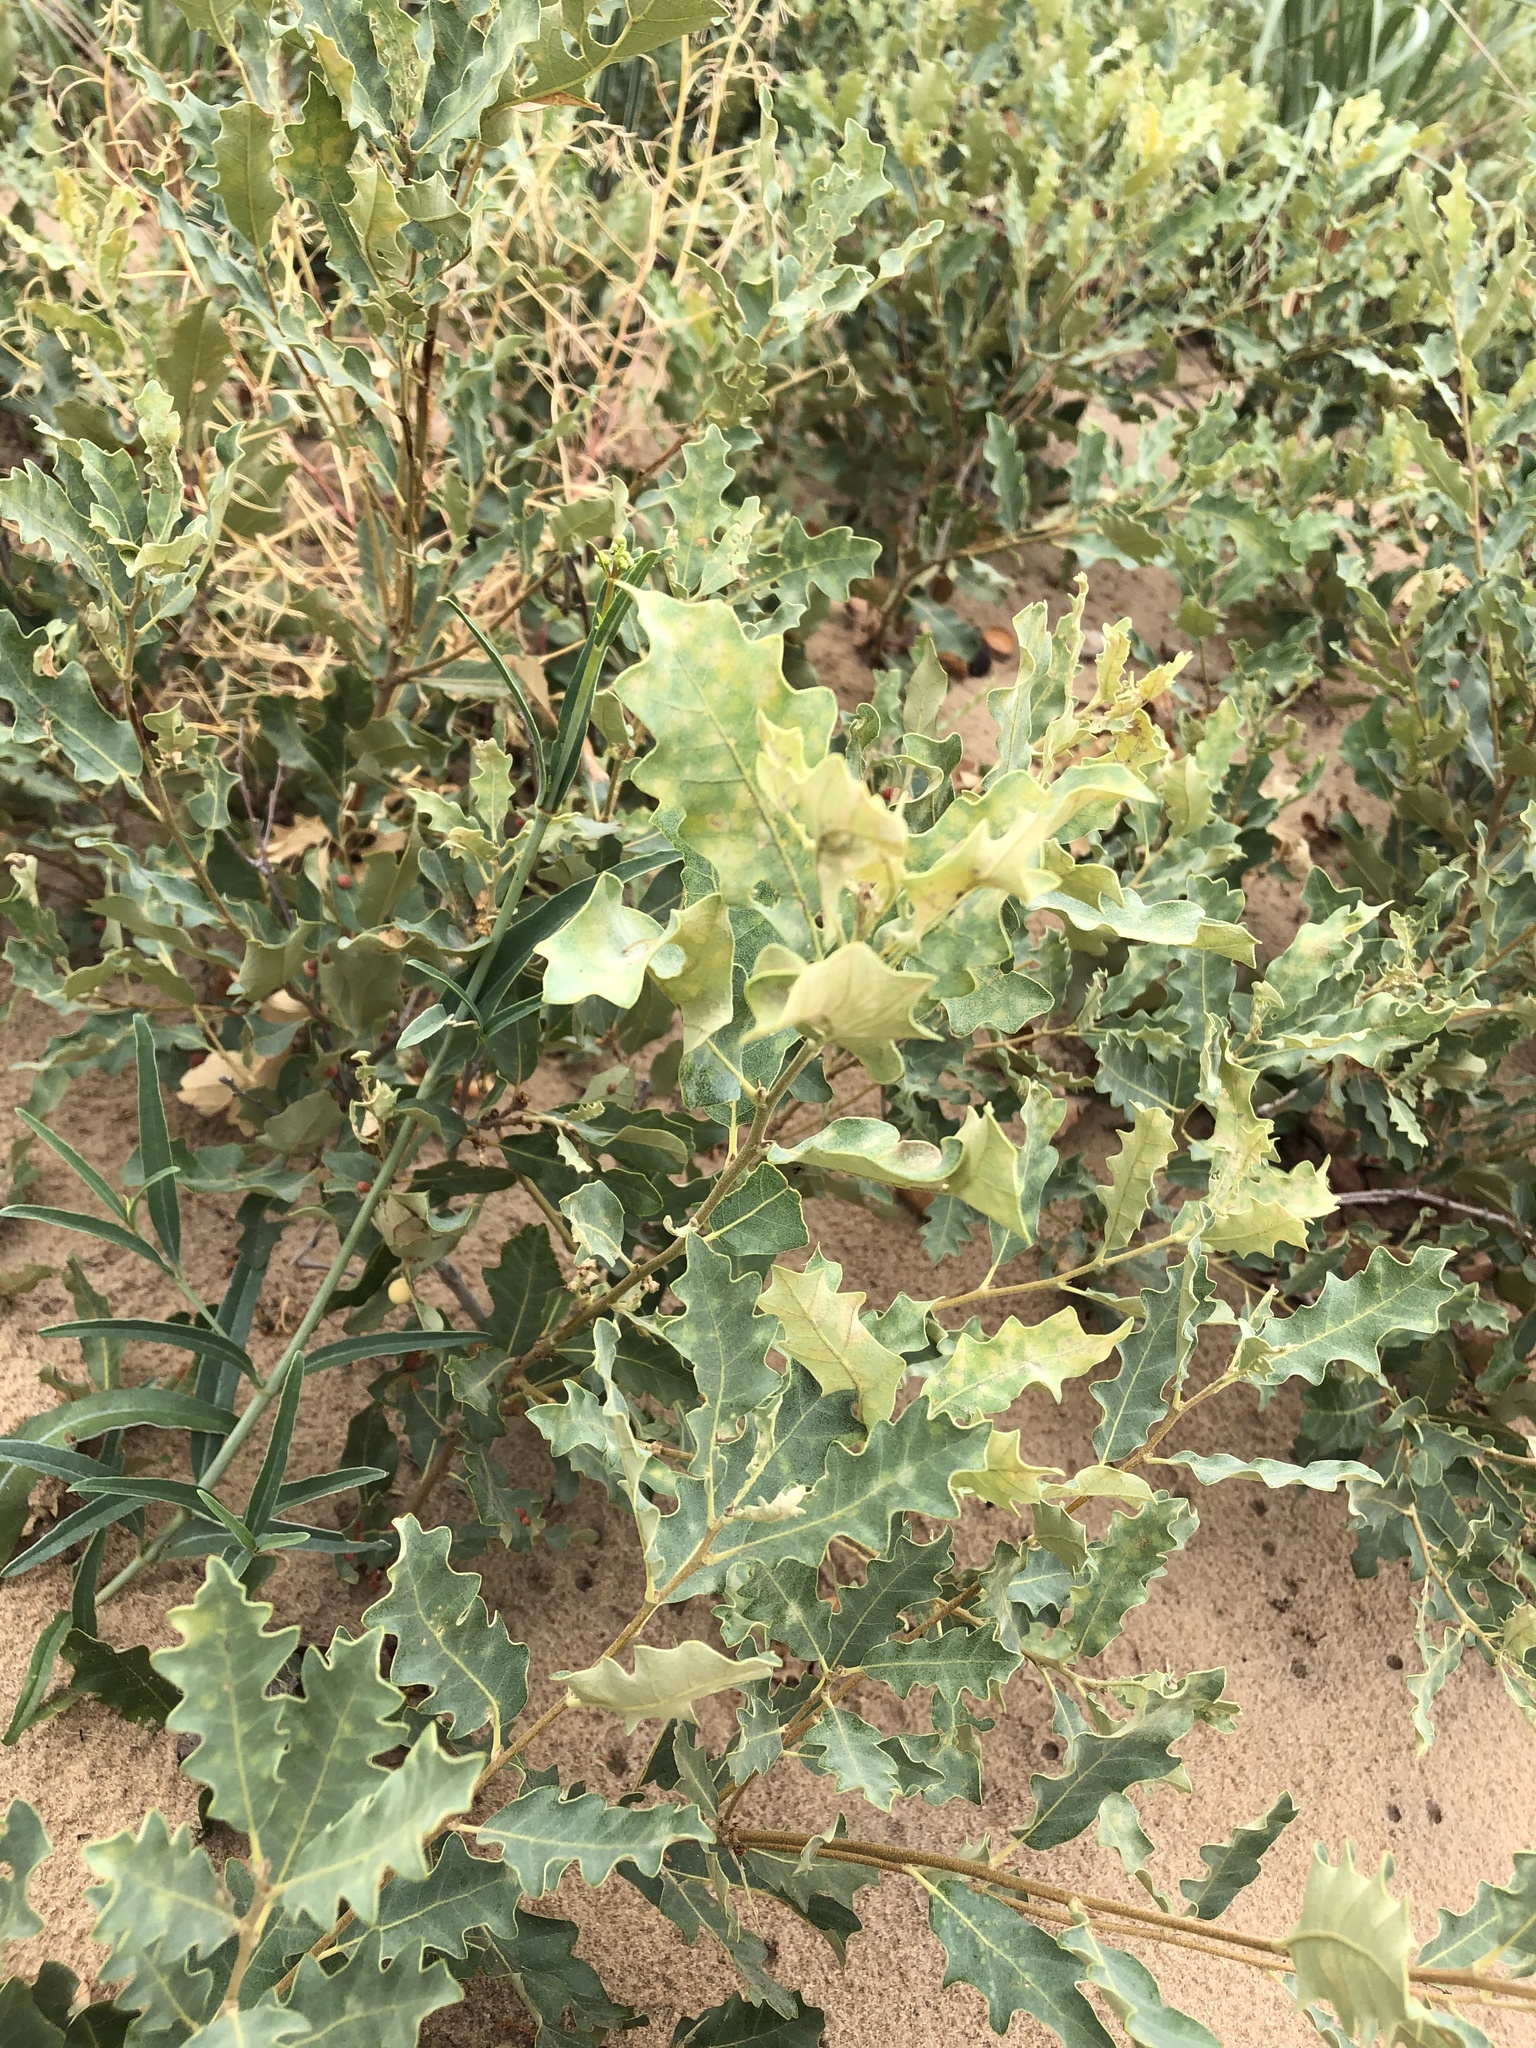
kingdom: Animalia
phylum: Arthropoda
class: Insecta
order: Hymenoptera
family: Cynipidae
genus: Callirhytis
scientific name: Callirhytis
